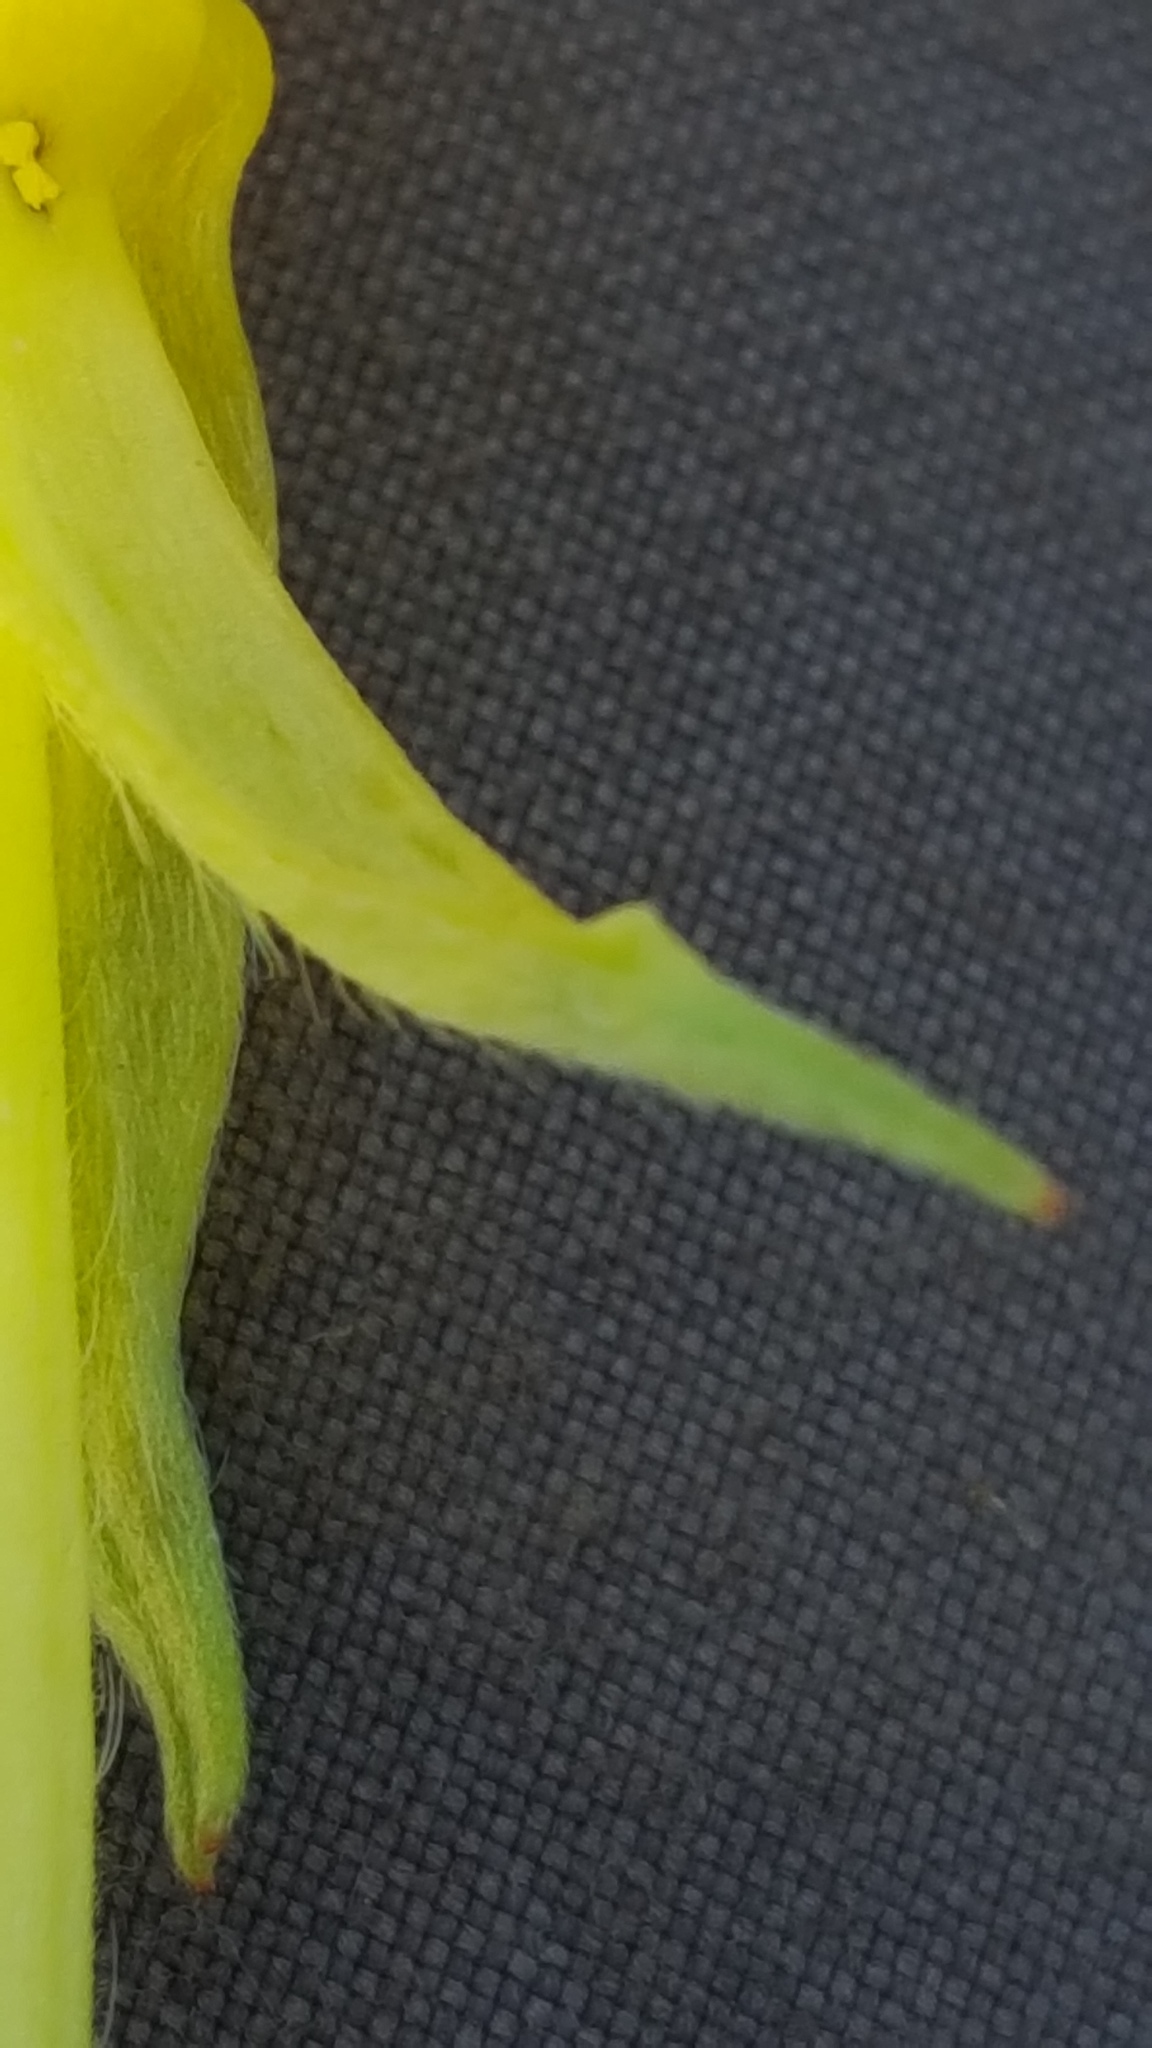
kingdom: Plantae
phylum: Tracheophyta
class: Magnoliopsida
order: Myrtales
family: Onagraceae
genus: Oenothera
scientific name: Oenothera parviflora
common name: Least evening-primrose
